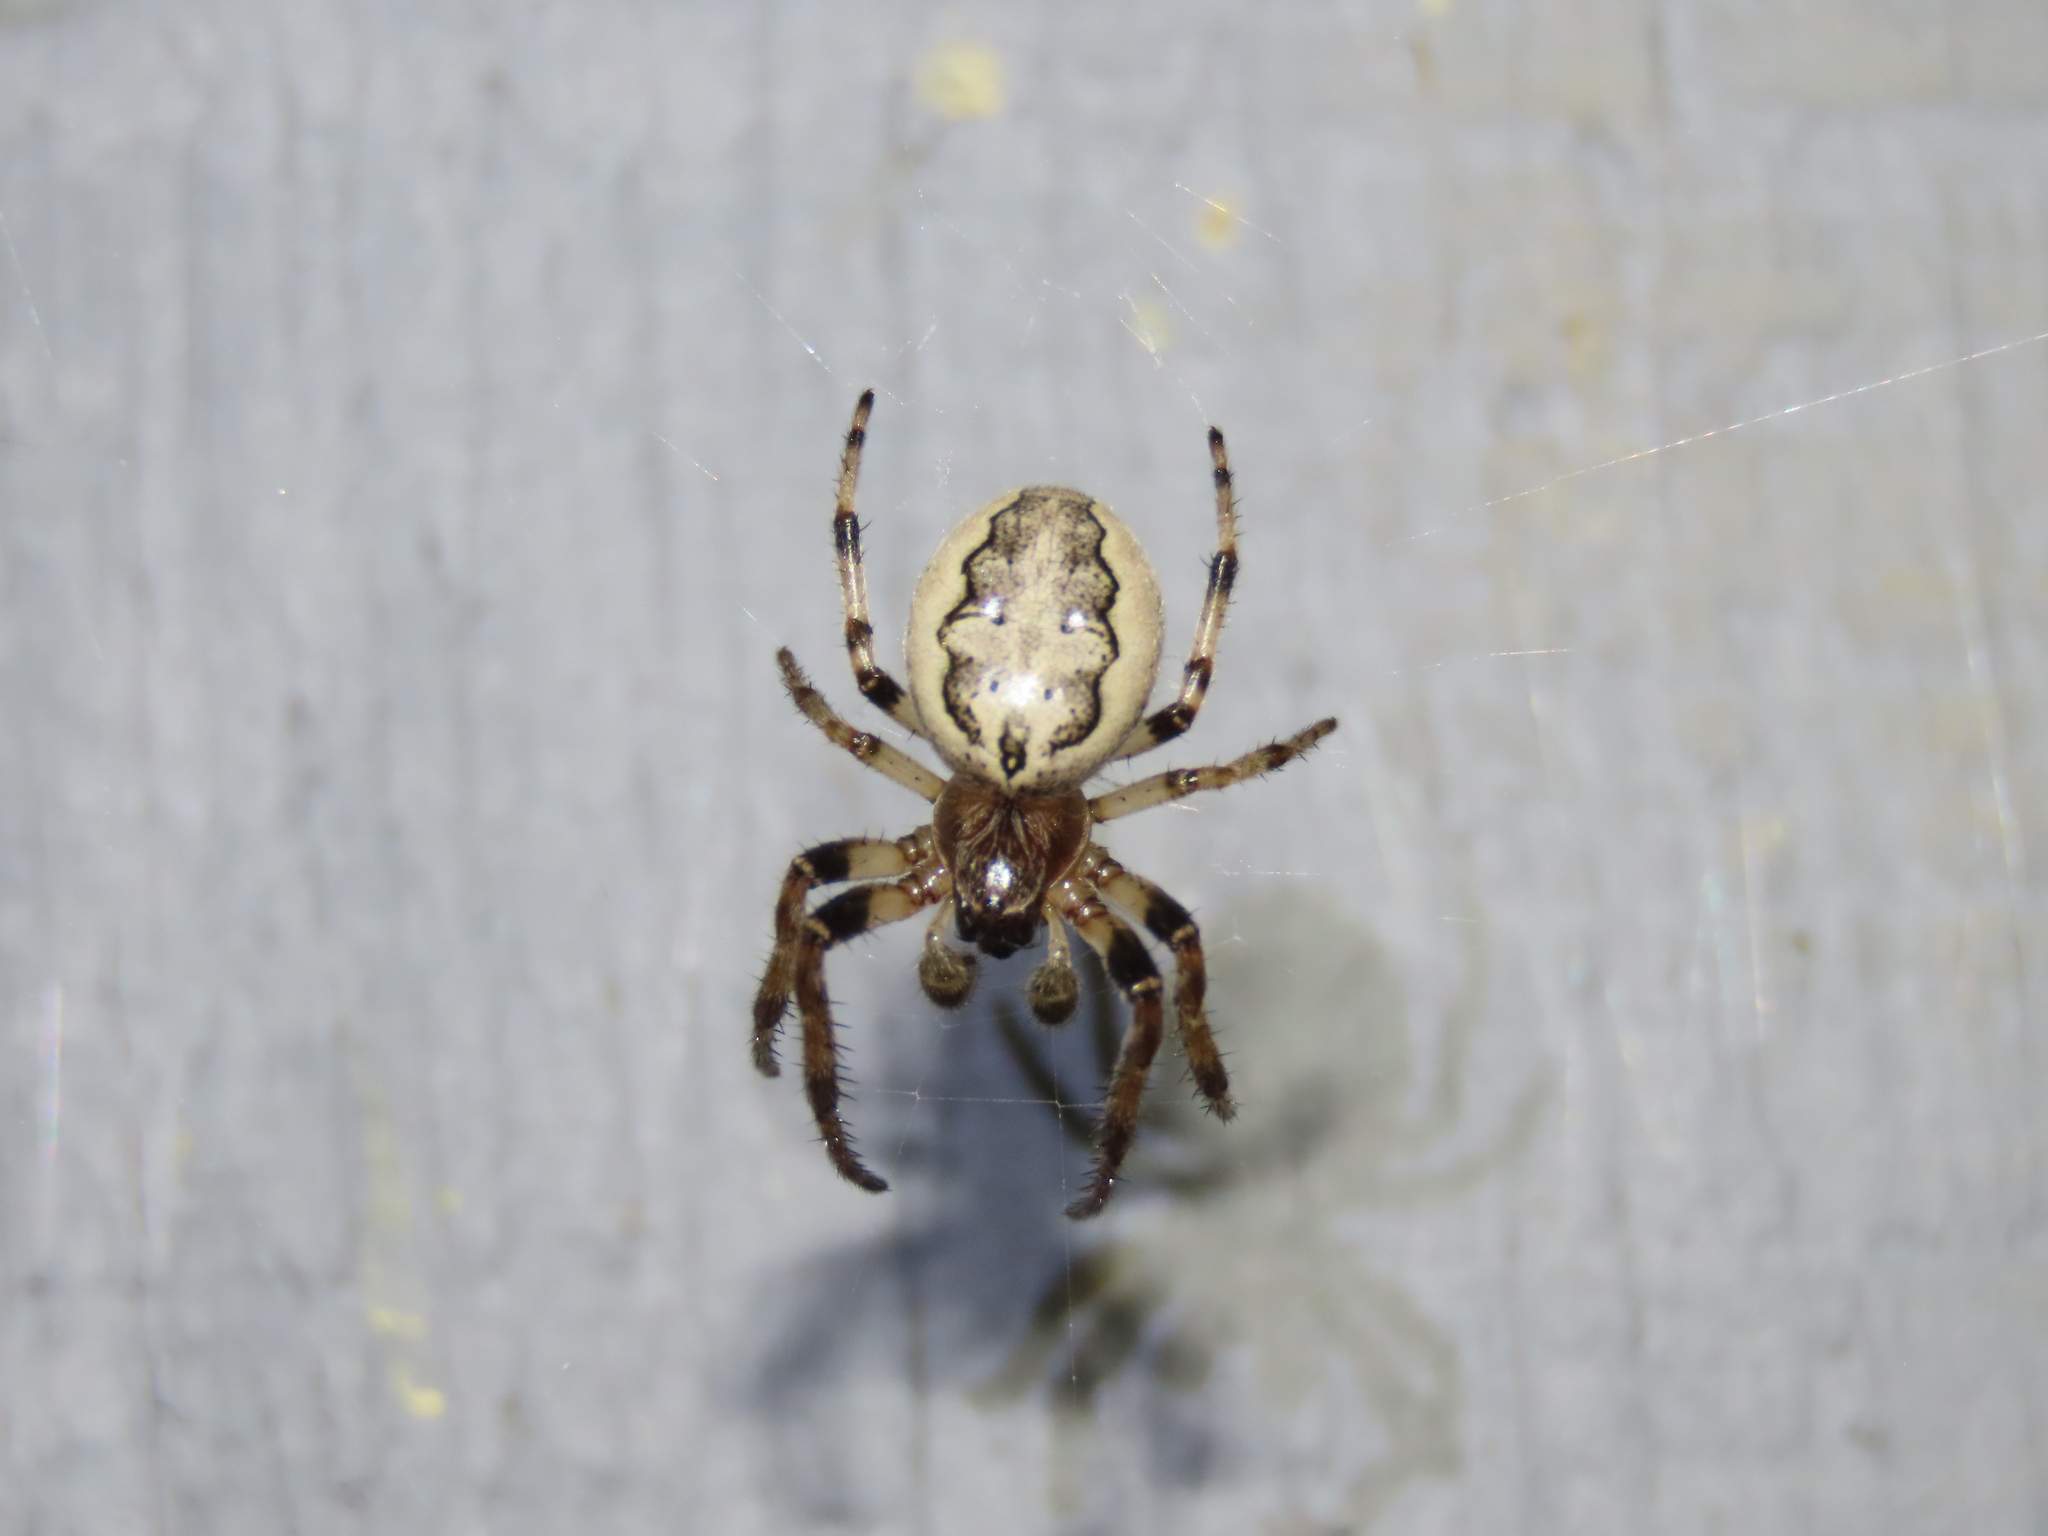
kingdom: Animalia
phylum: Arthropoda
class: Arachnida
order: Araneae
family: Araneidae
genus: Larinioides
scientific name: Larinioides cornutus
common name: Furrow orbweaver
